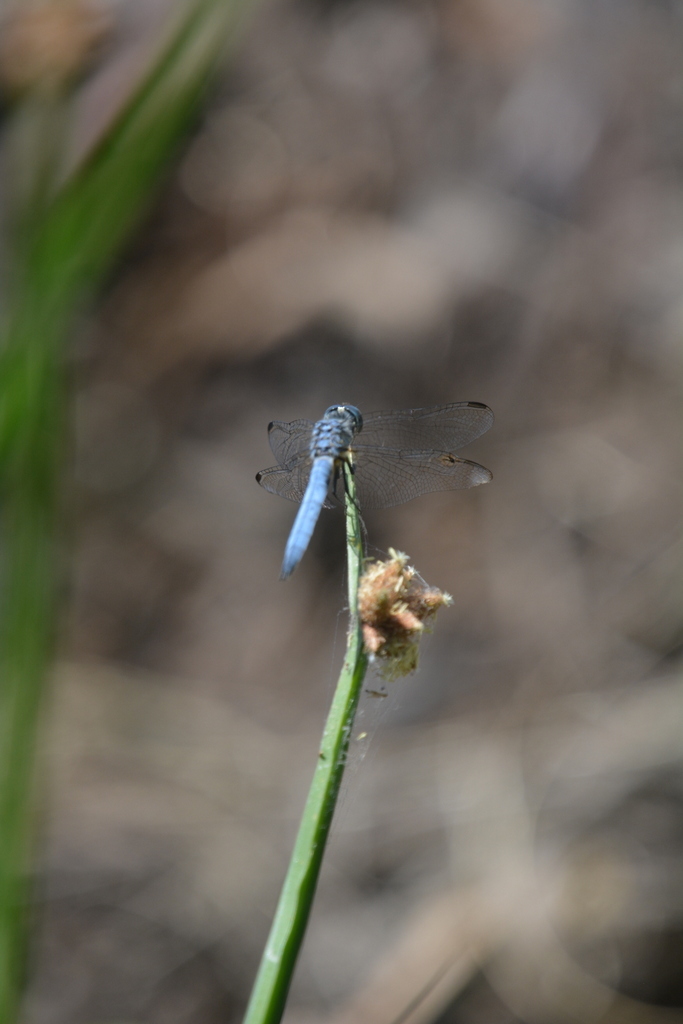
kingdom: Animalia
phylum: Arthropoda
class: Insecta
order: Odonata
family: Libellulidae
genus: Pachydiplax
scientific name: Pachydiplax longipennis
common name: Blue dasher
